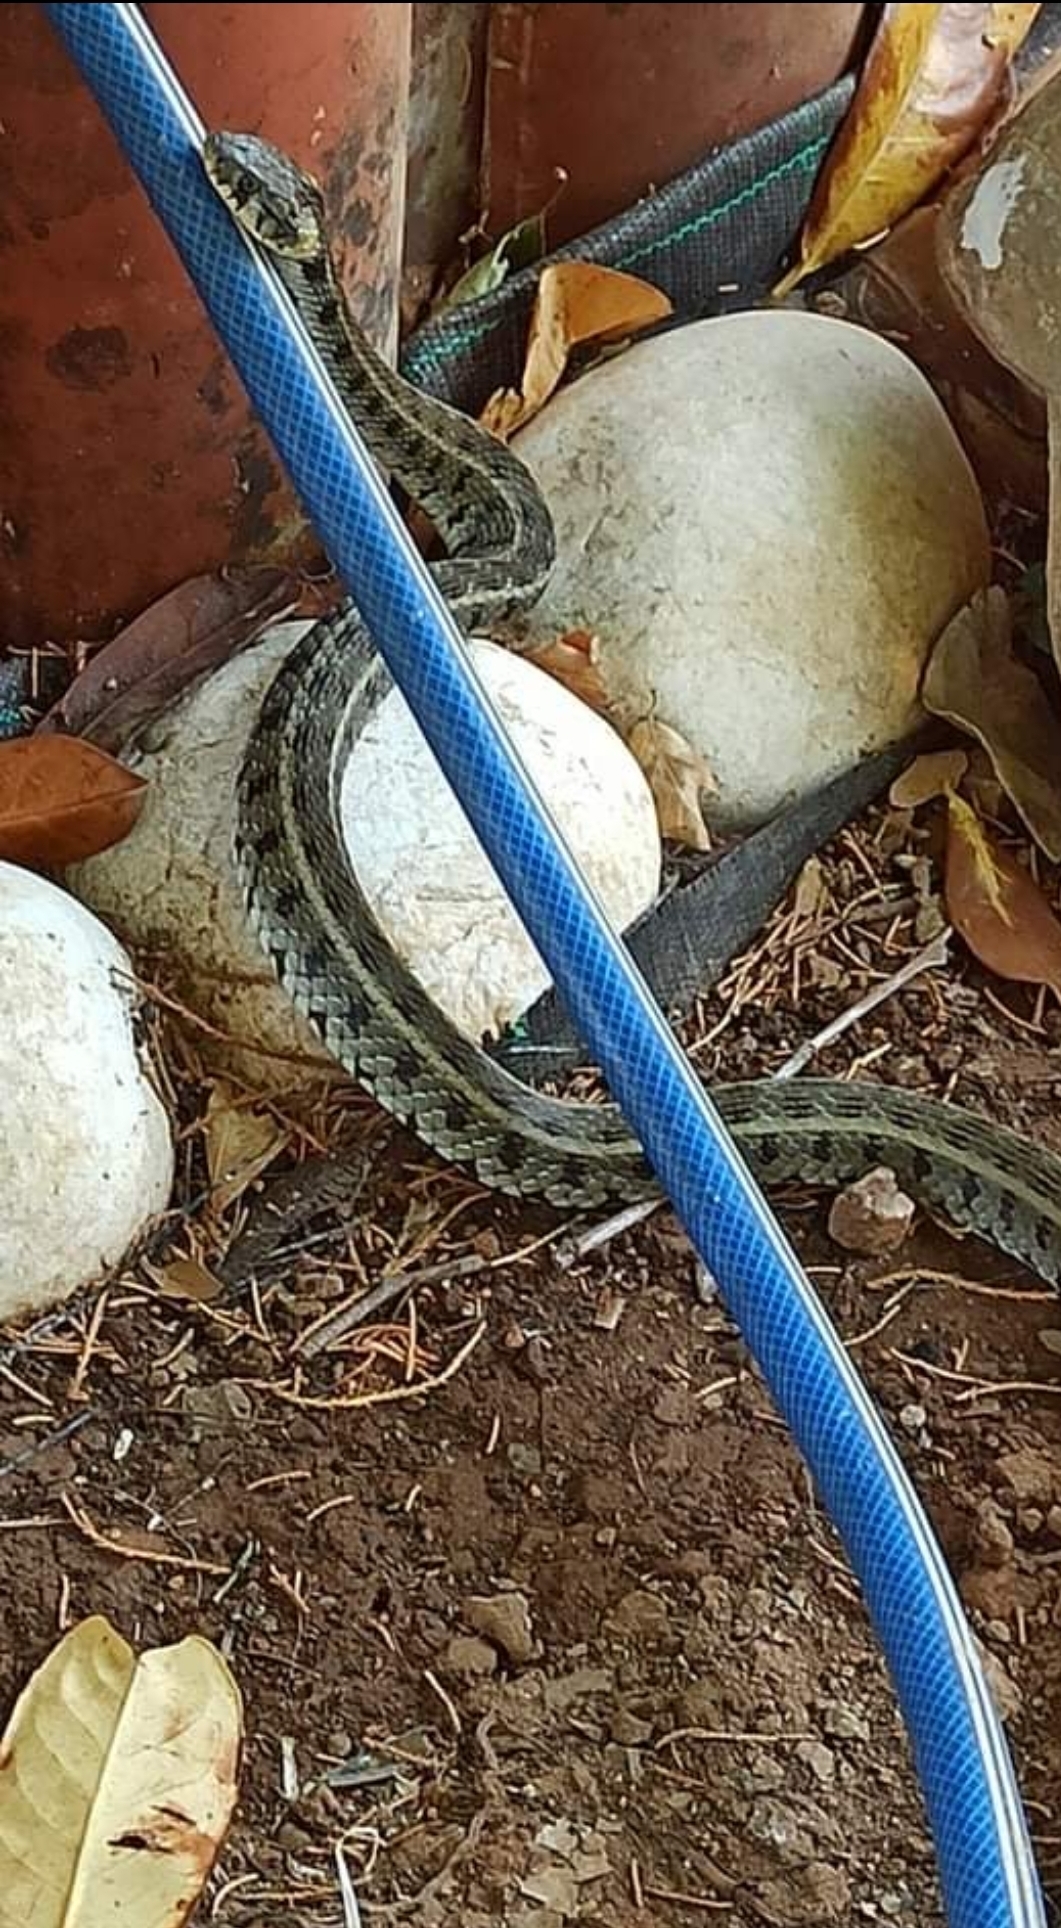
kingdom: Animalia
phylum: Chordata
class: Squamata
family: Colubridae
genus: Natrix
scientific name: Natrix natrix
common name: Grass snake
